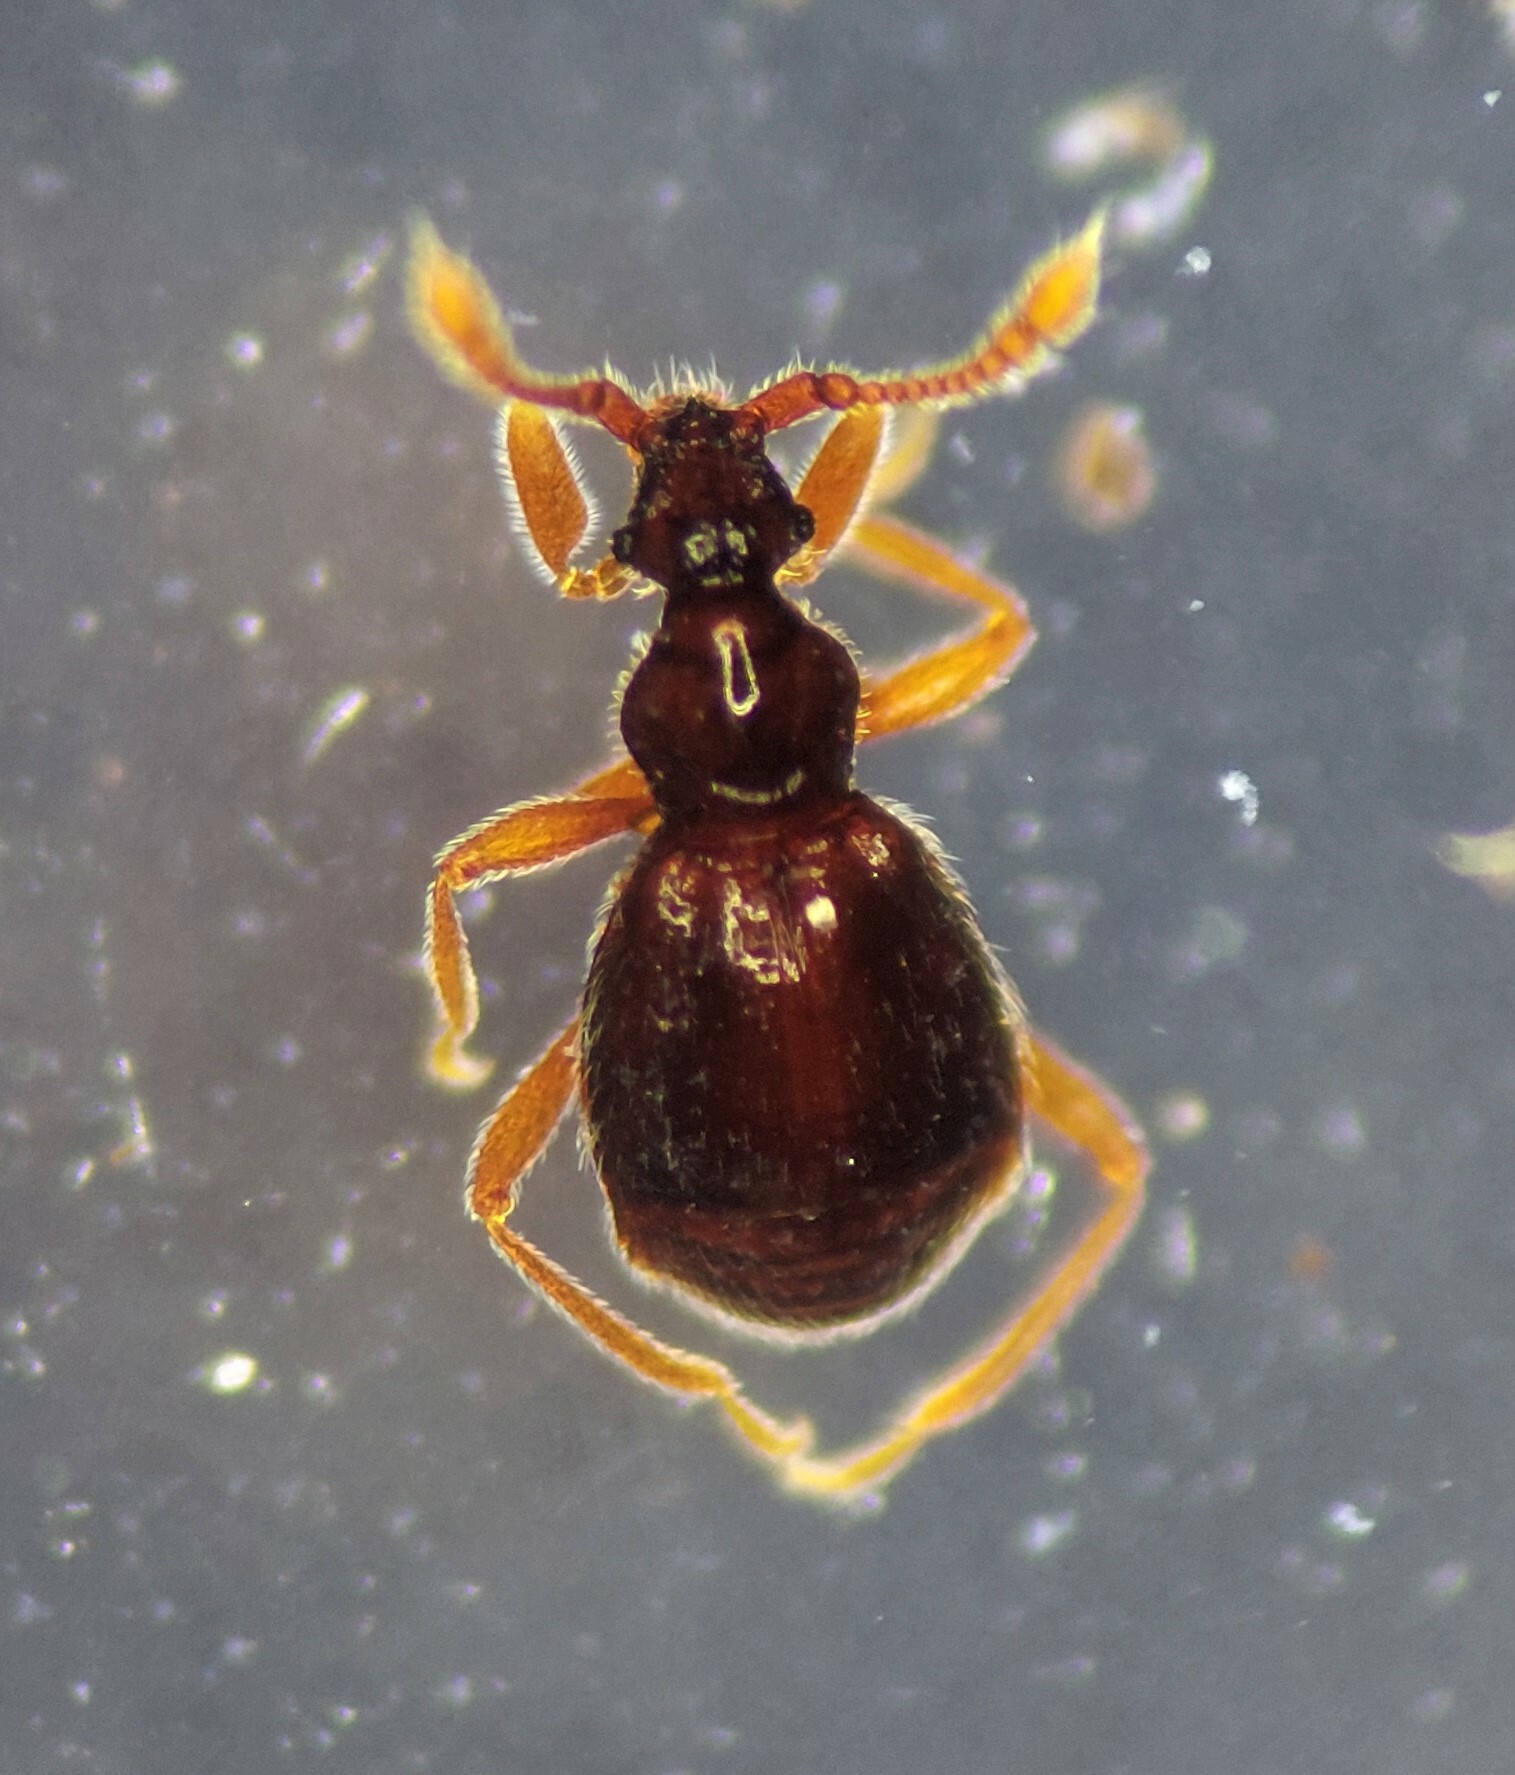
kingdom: Animalia
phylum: Arthropoda
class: Insecta
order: Coleoptera
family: Staphylinidae
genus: Machaerodes
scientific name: Machaerodes carinatus
